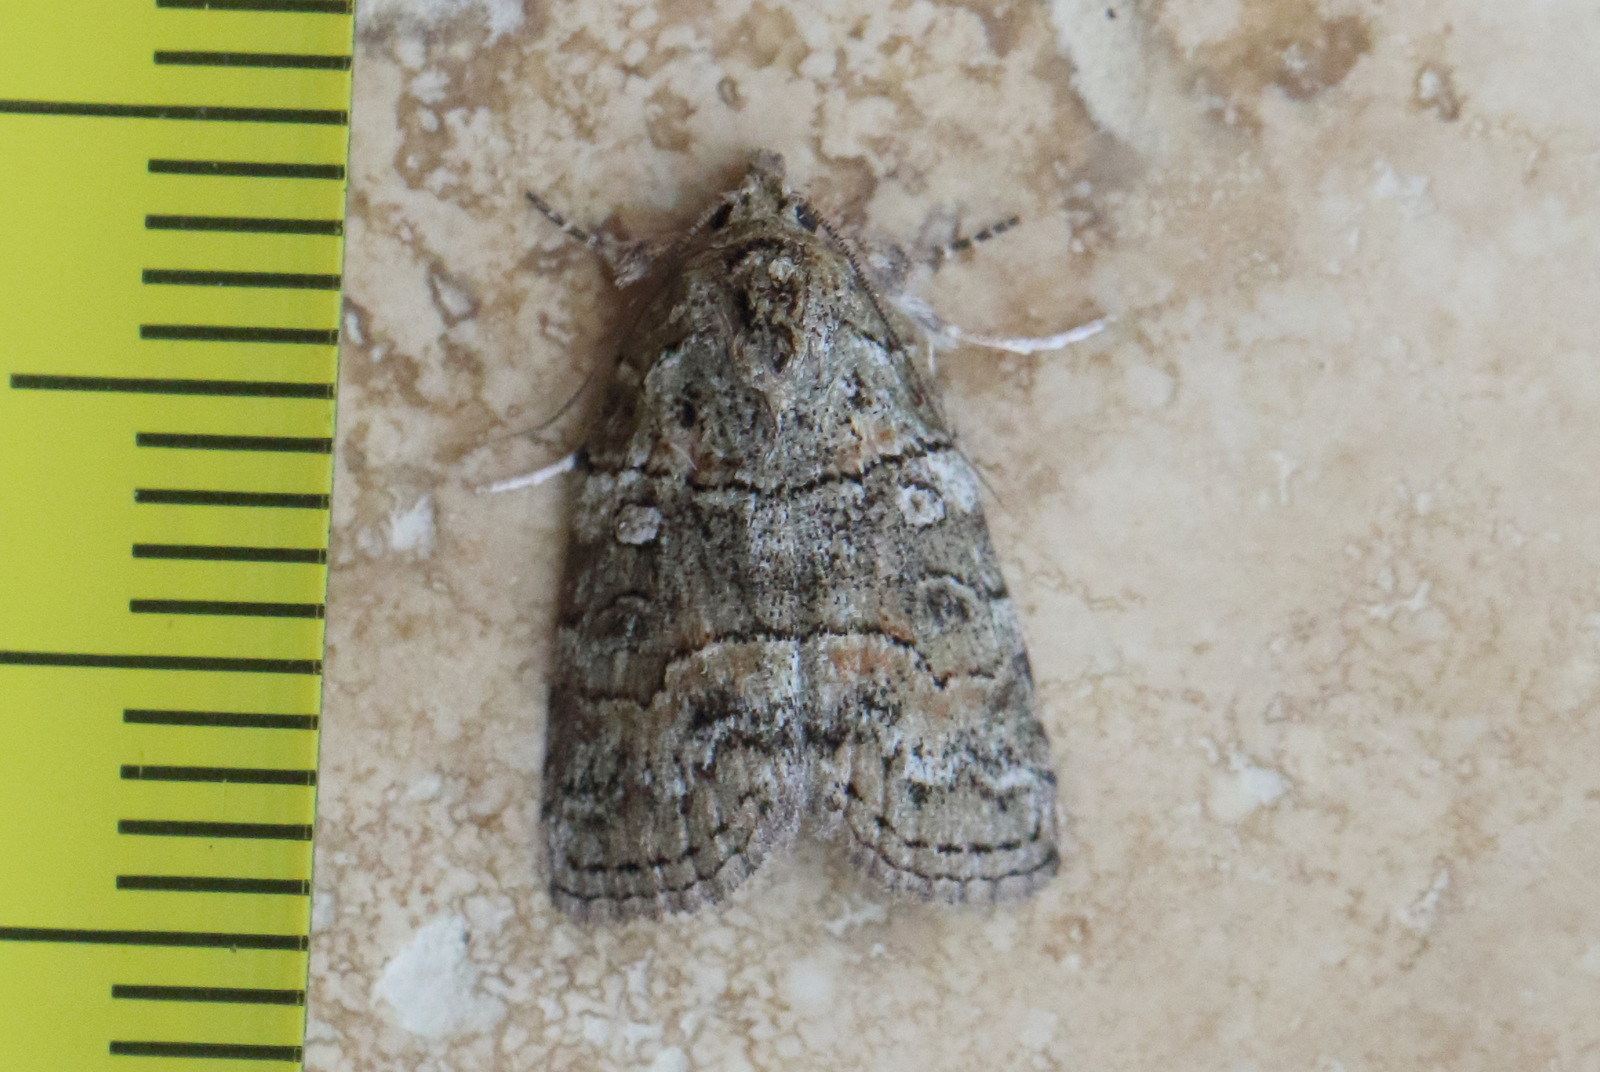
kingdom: Animalia
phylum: Arthropoda
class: Insecta
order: Lepidoptera
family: Nolidae
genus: Calathusa
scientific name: Calathusa dispila
